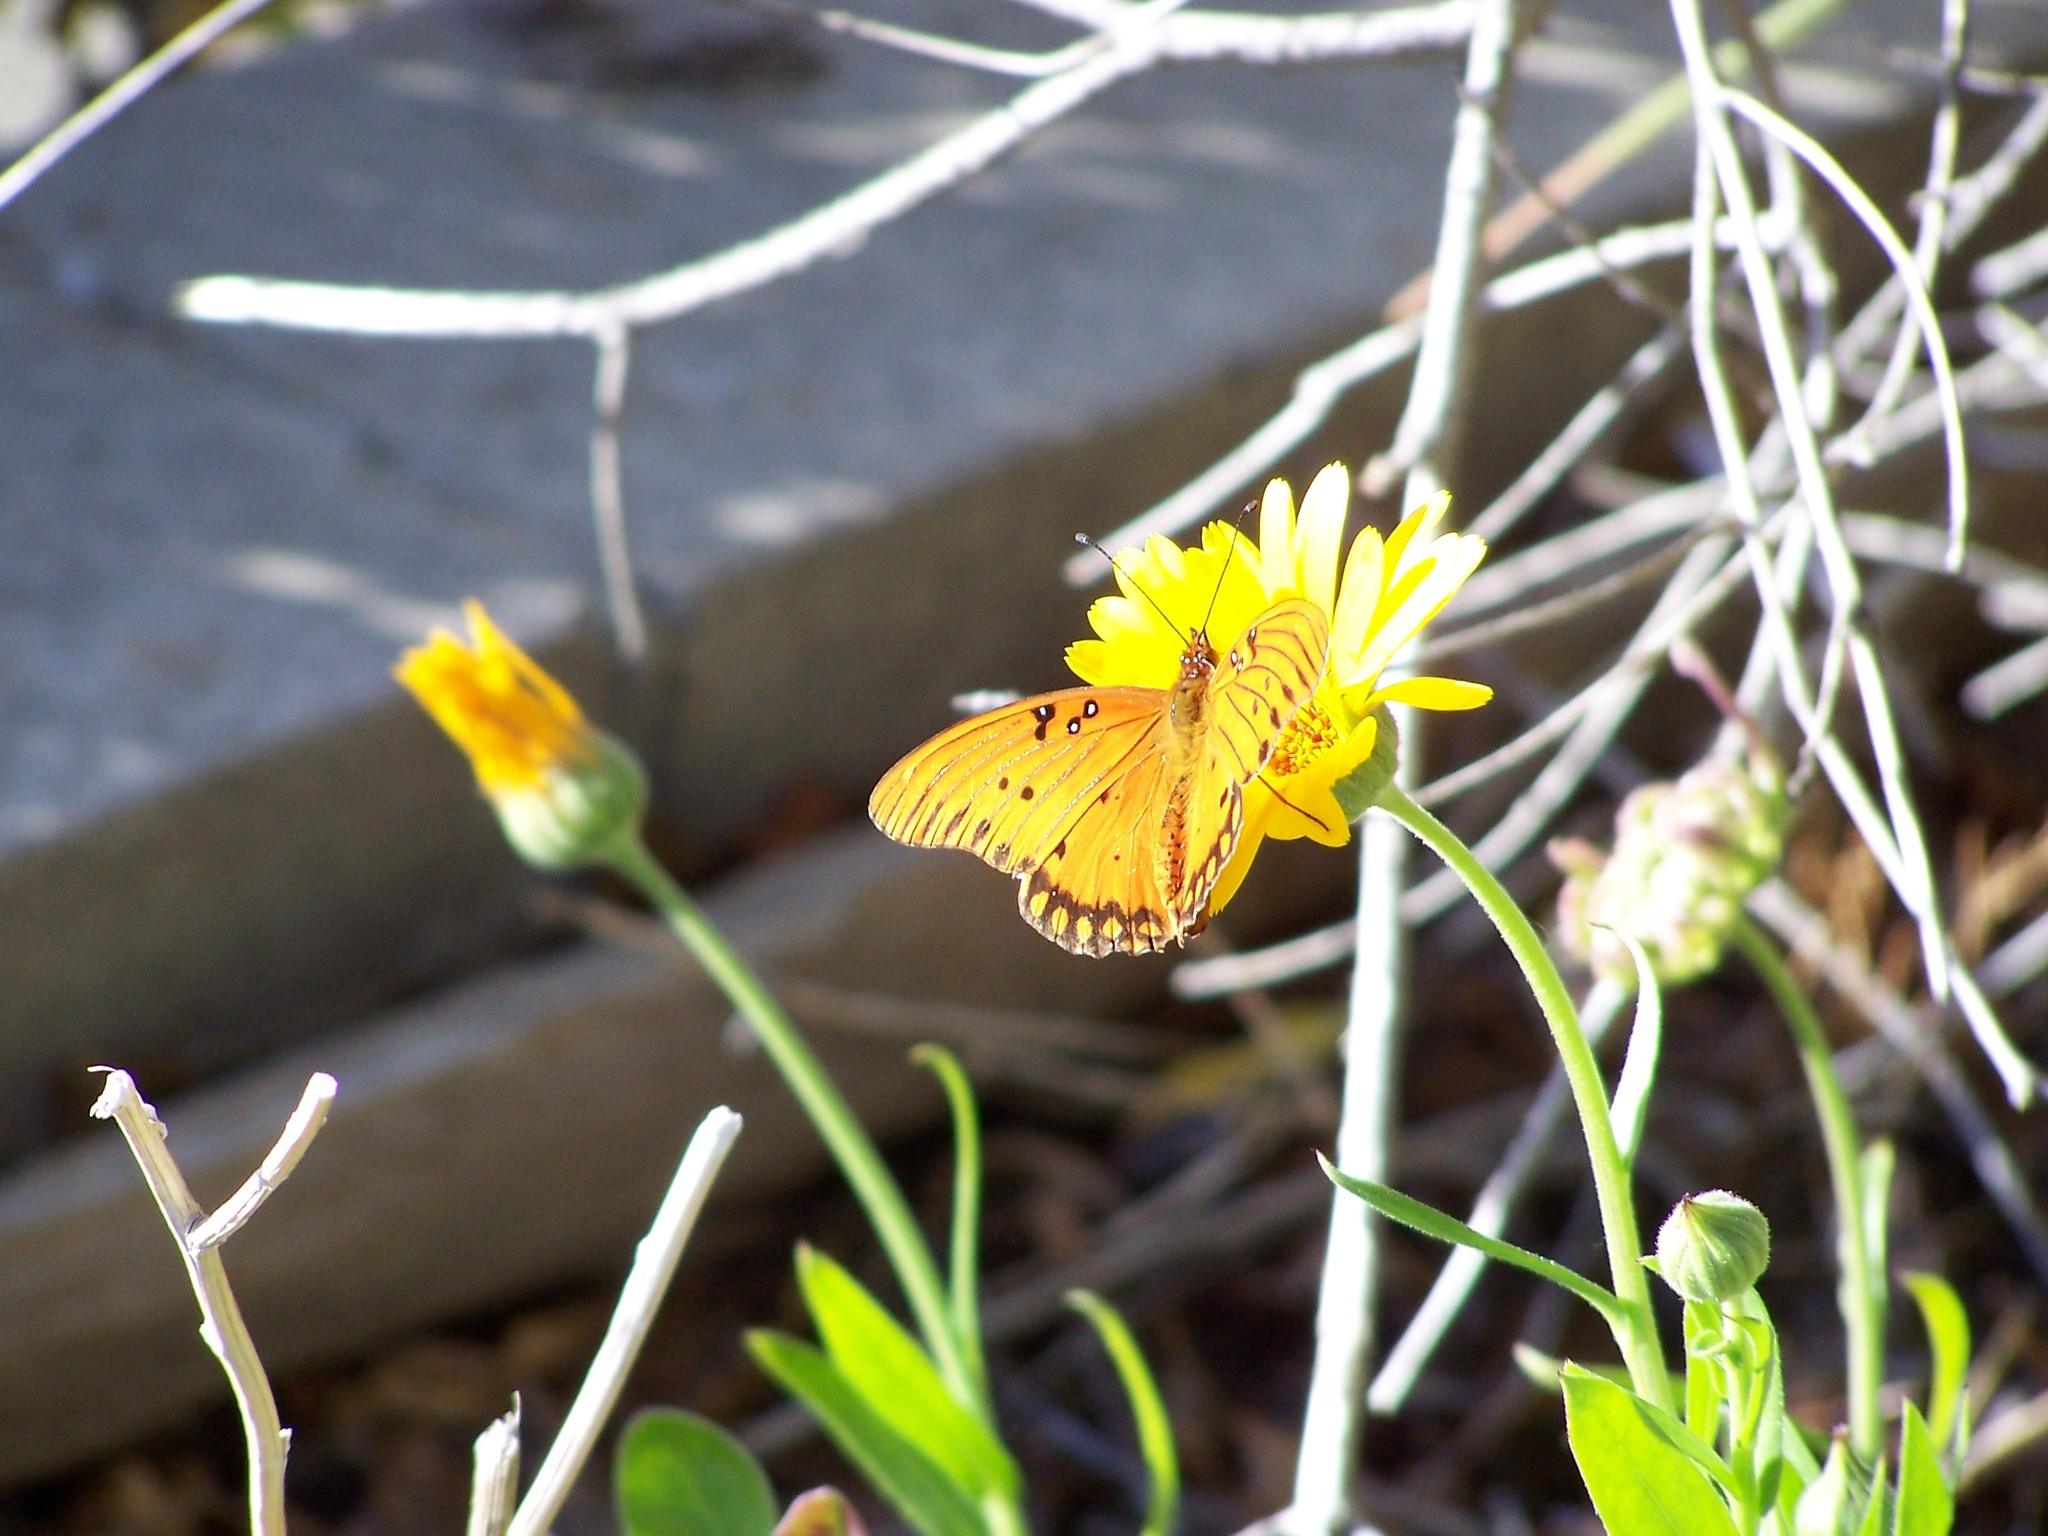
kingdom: Animalia
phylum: Arthropoda
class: Insecta
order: Lepidoptera
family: Nymphalidae
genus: Dione
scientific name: Dione vanillae
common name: Gulf fritillary
